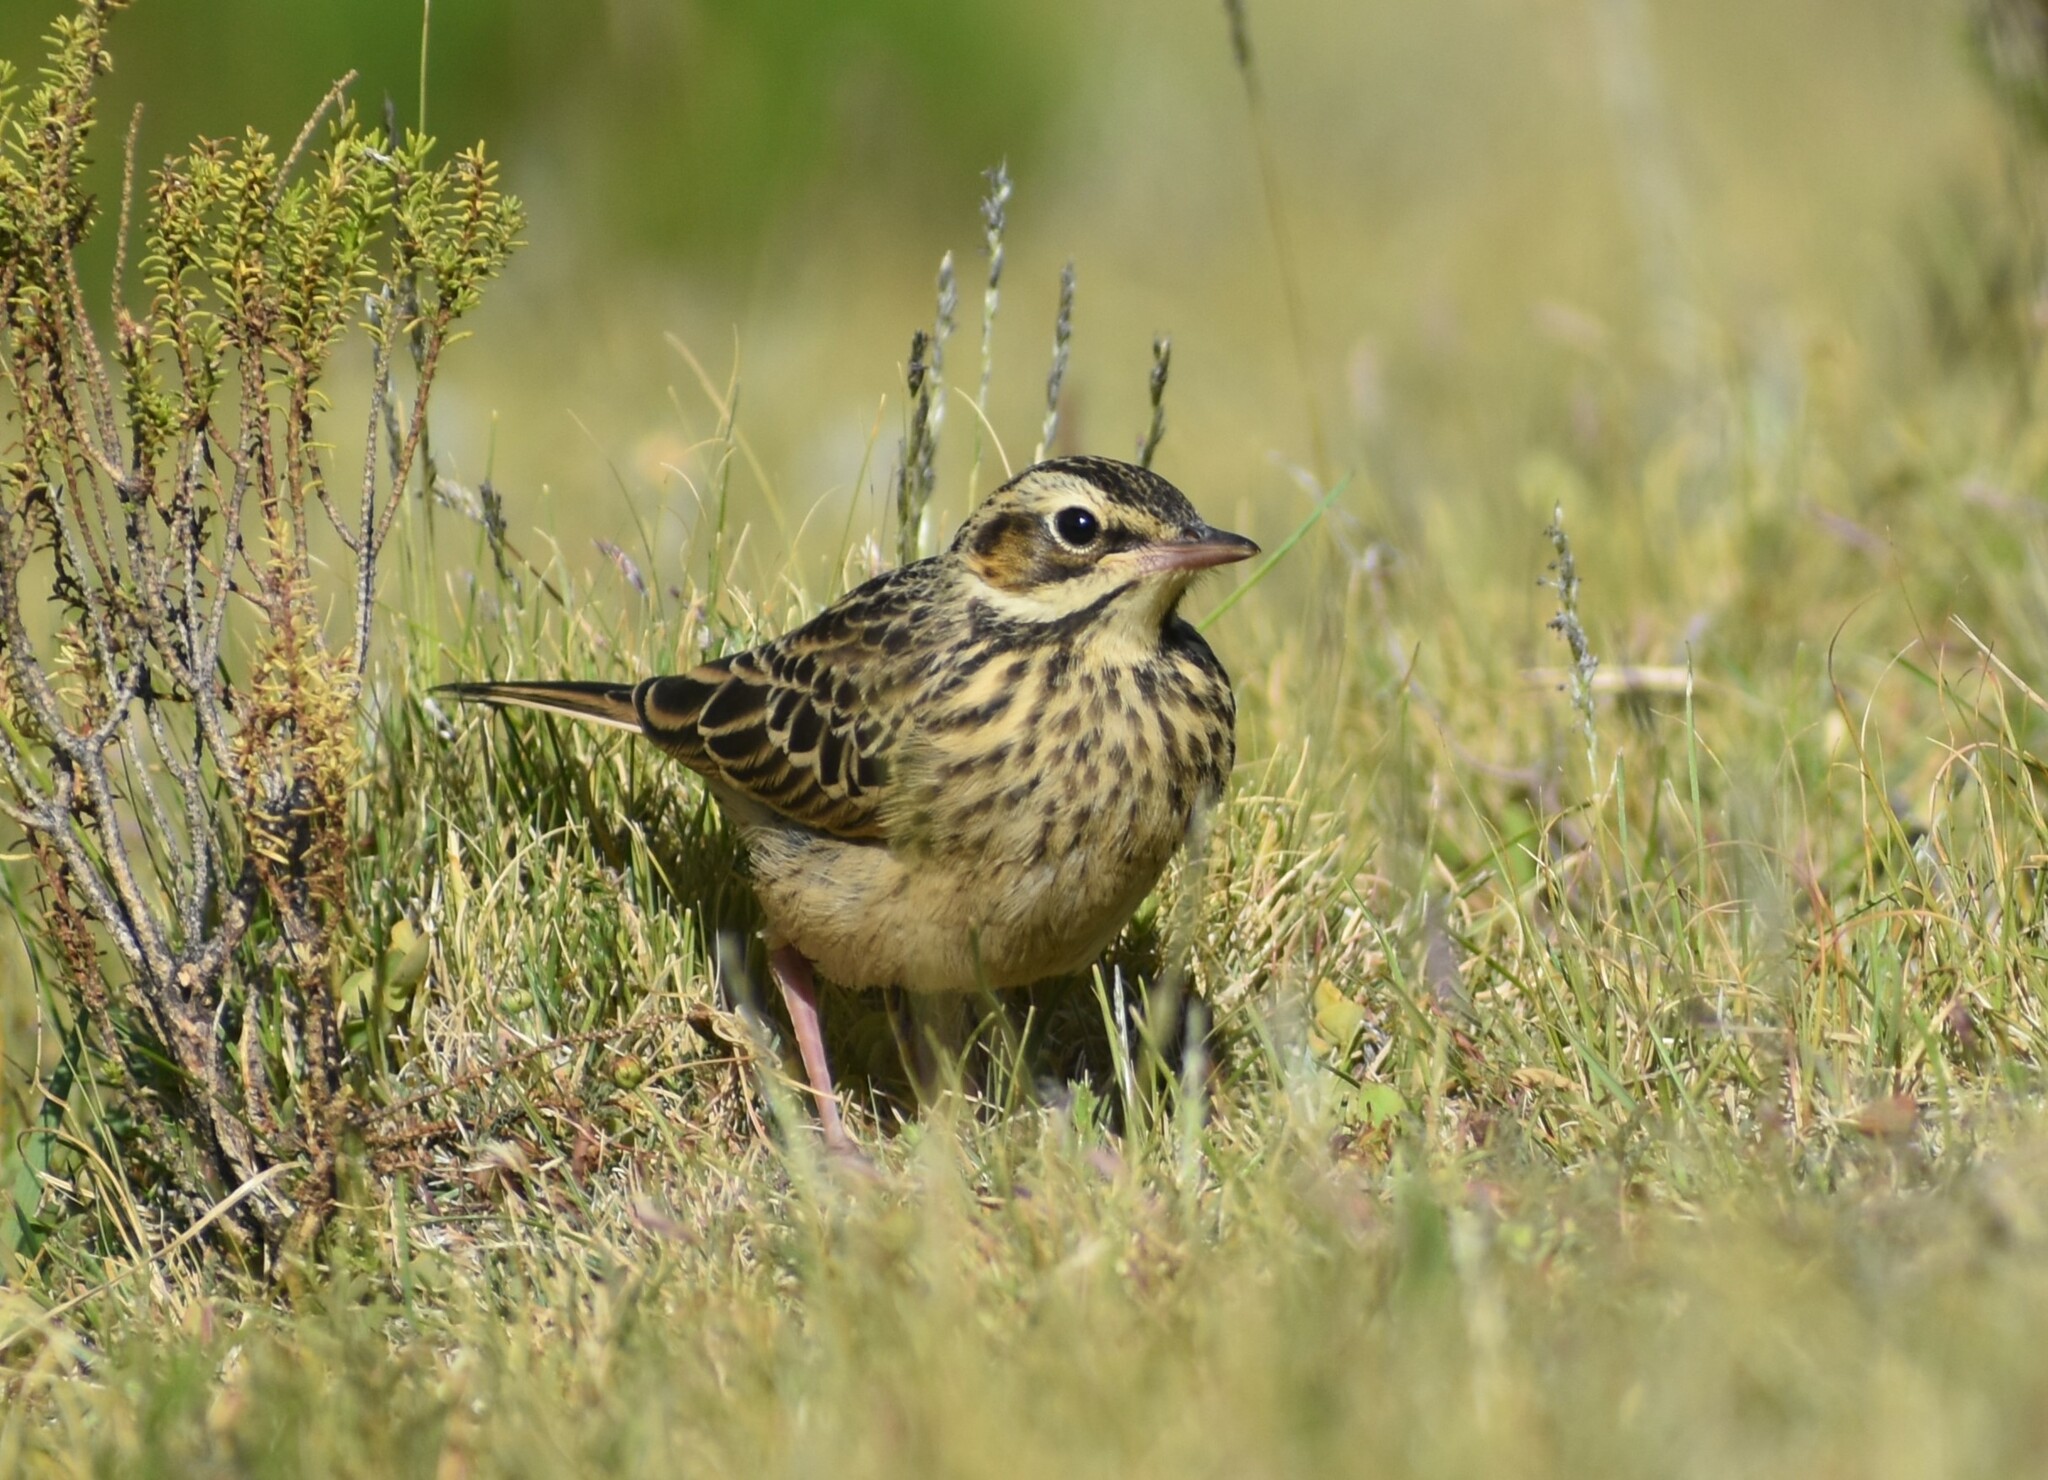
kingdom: Animalia
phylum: Chordata
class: Aves
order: Passeriformes
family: Motacillidae
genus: Anthus
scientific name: Anthus hoeschi
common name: Mountain pipit
